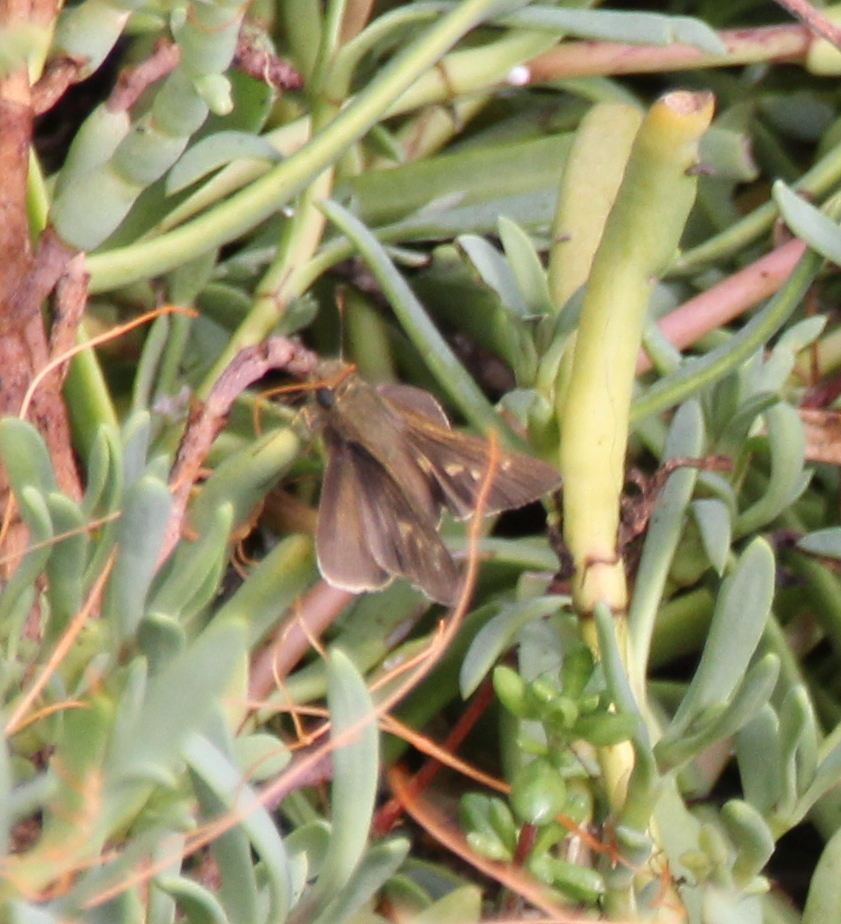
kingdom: Animalia
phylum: Arthropoda
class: Insecta
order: Lepidoptera
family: Hesperiidae
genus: Panoquina
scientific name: Panoquina errans
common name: Wandering skipper
